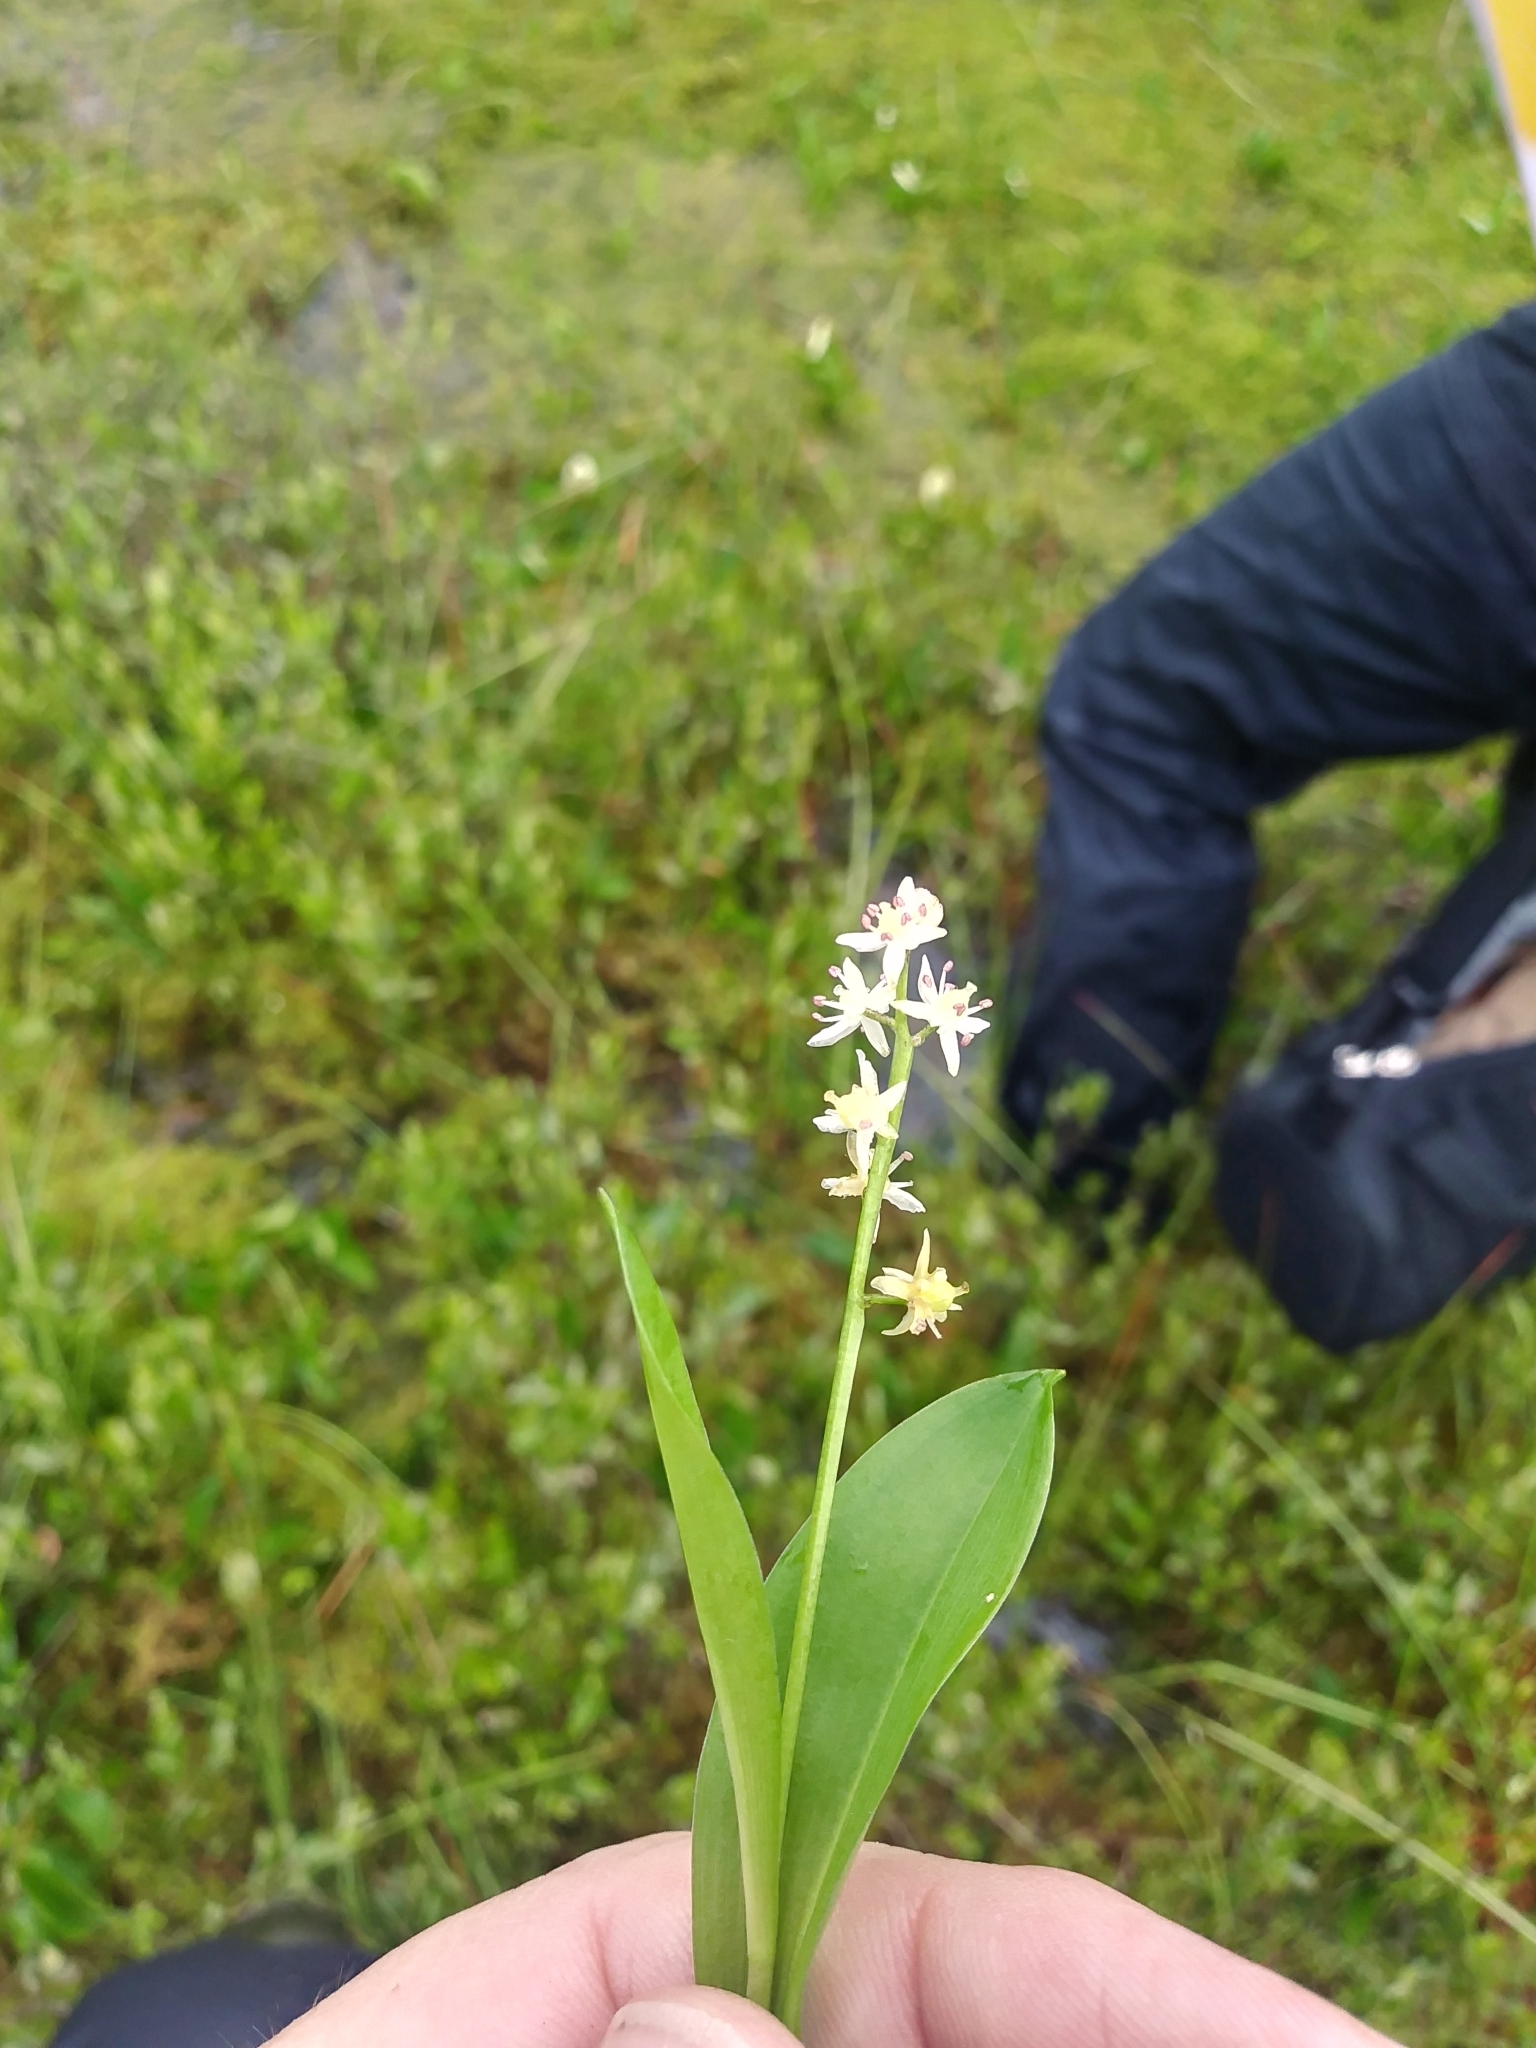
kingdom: Plantae
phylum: Tracheophyta
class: Liliopsida
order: Asparagales
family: Asparagaceae
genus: Maianthemum
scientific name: Maianthemum trifolium
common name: Swamp false solomon's seal
